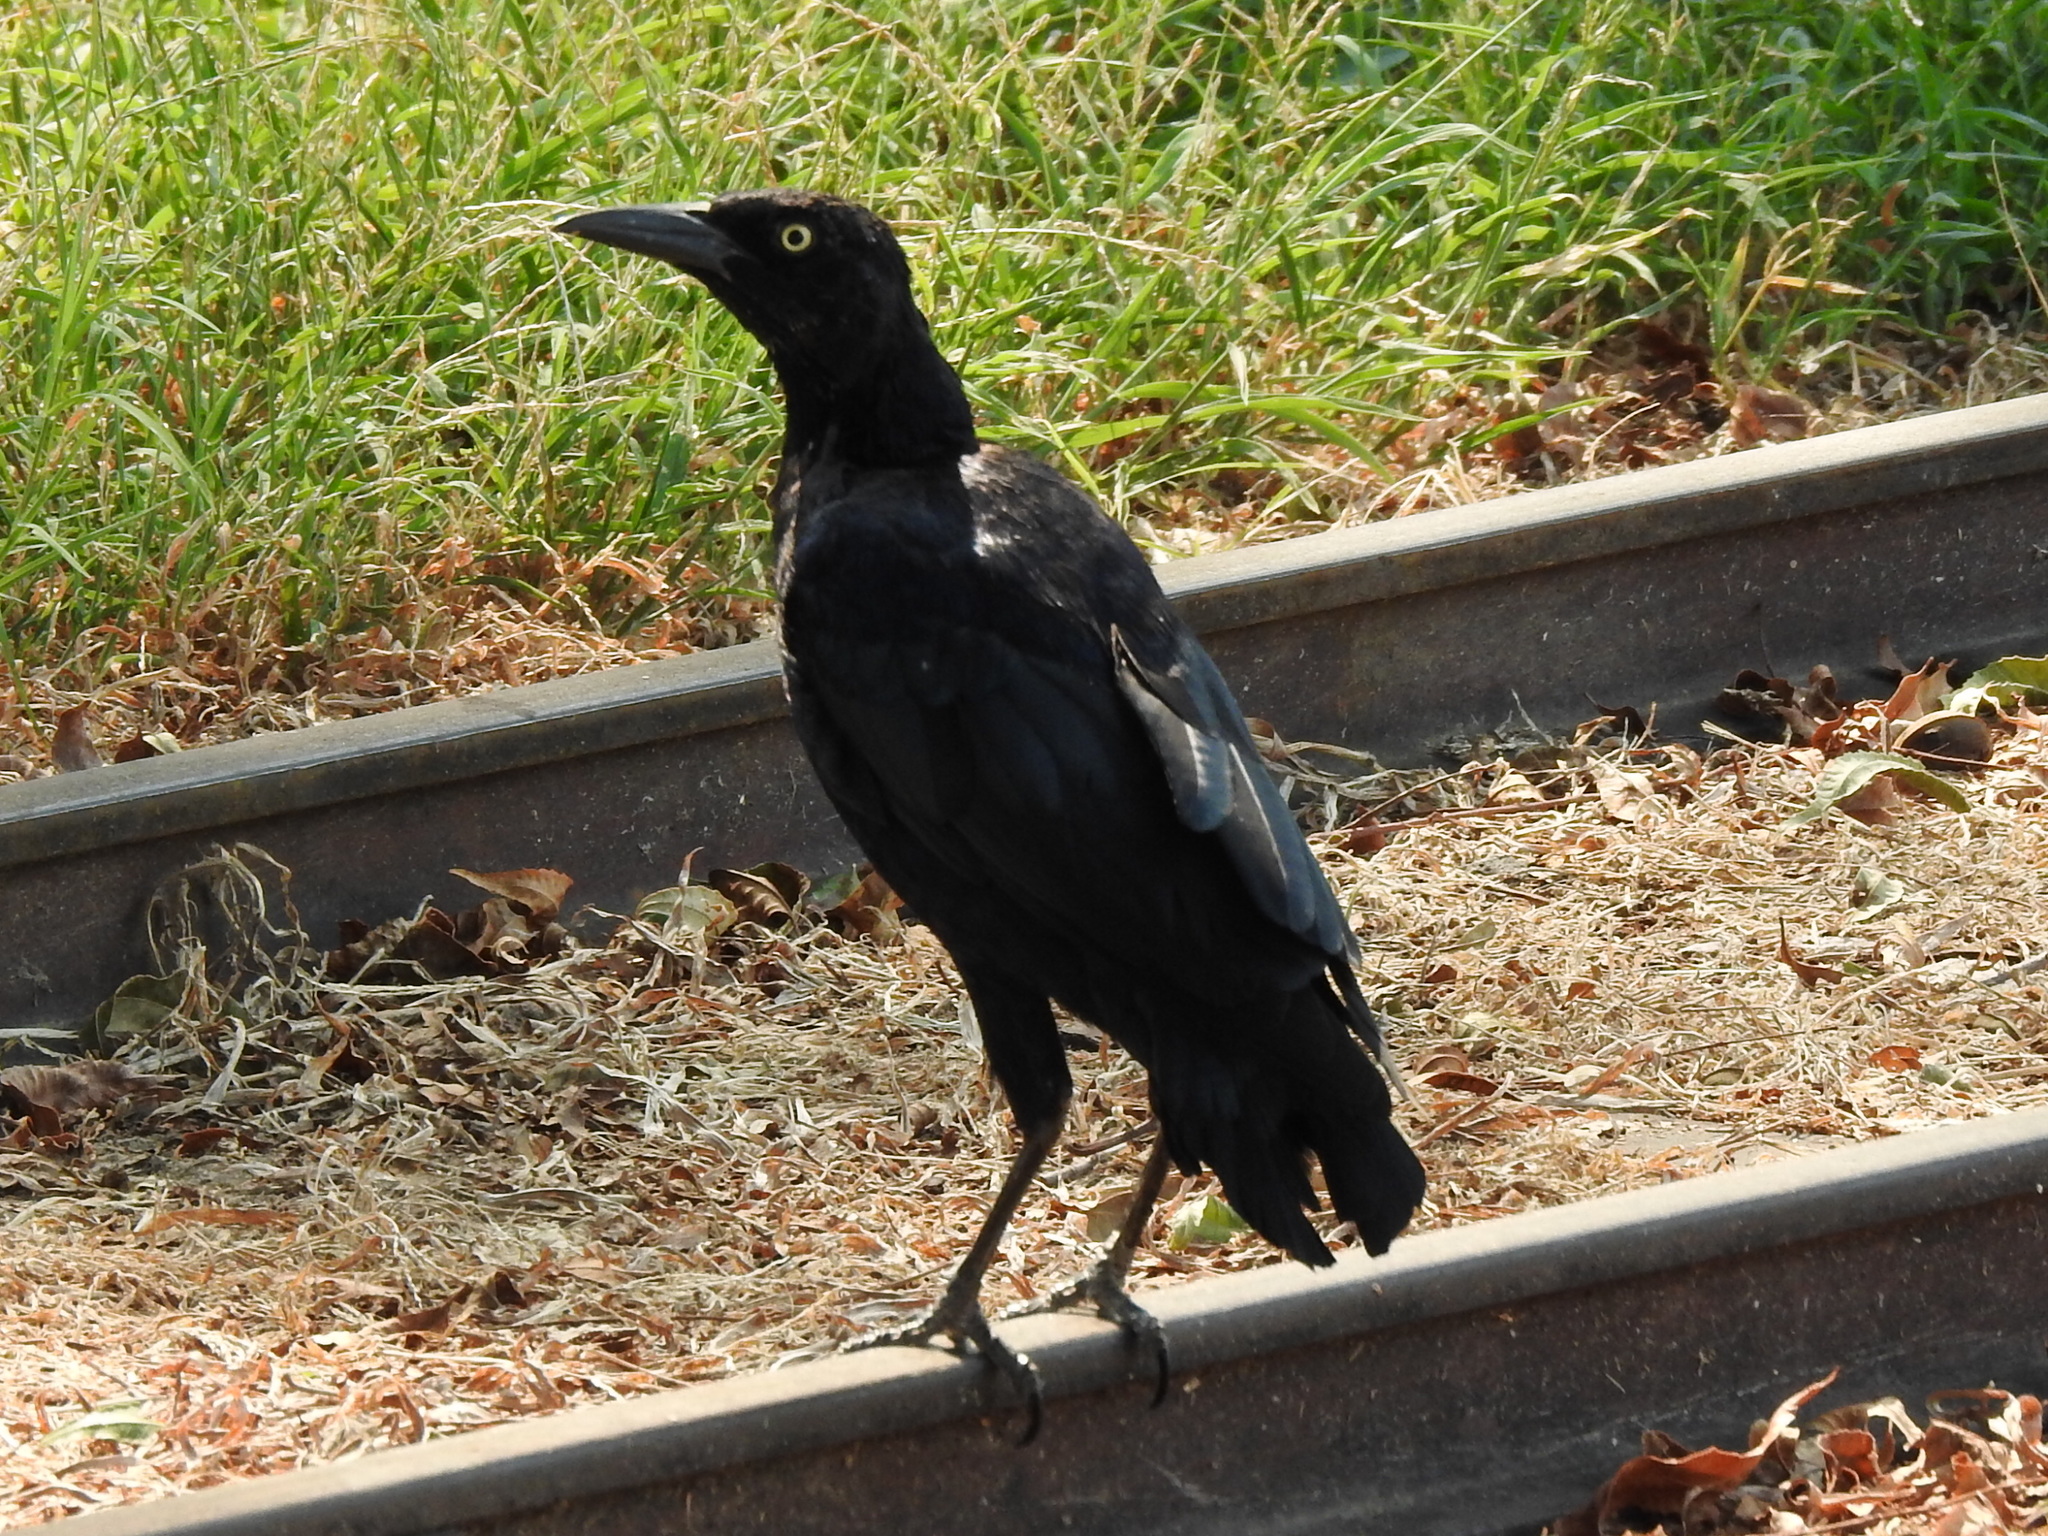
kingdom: Animalia
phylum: Chordata
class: Aves
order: Passeriformes
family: Icteridae
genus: Quiscalus
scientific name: Quiscalus mexicanus
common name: Great-tailed grackle
